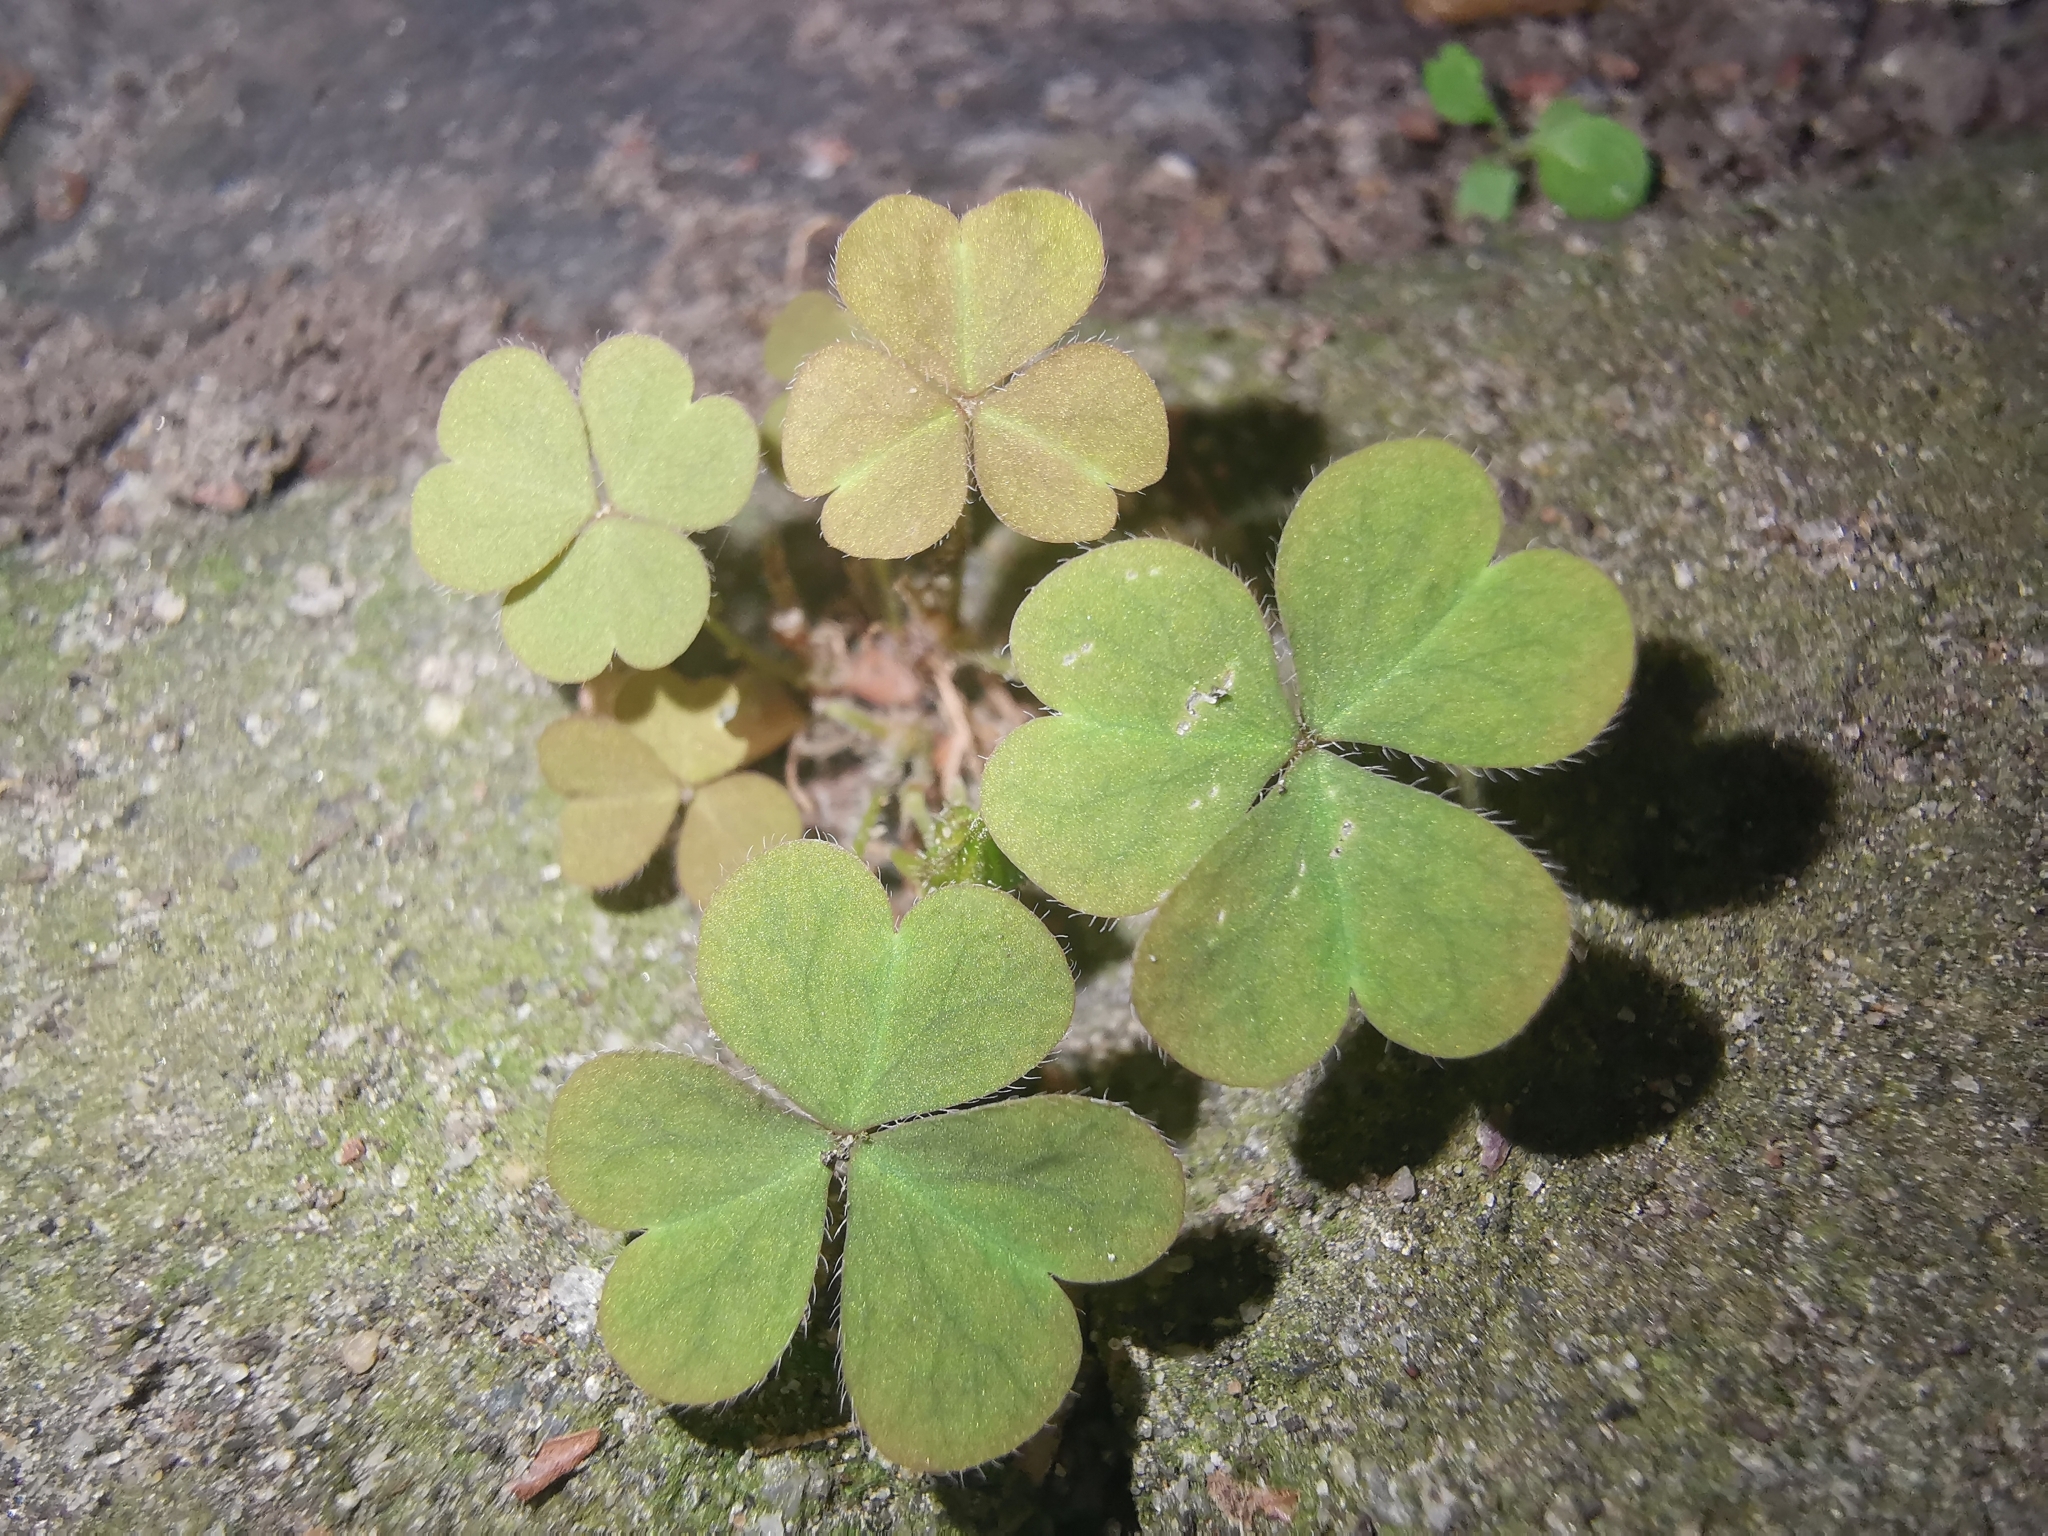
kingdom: Plantae
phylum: Tracheophyta
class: Magnoliopsida
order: Oxalidales
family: Oxalidaceae
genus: Oxalis
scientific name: Oxalis corniculata
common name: Procumbent yellow-sorrel
